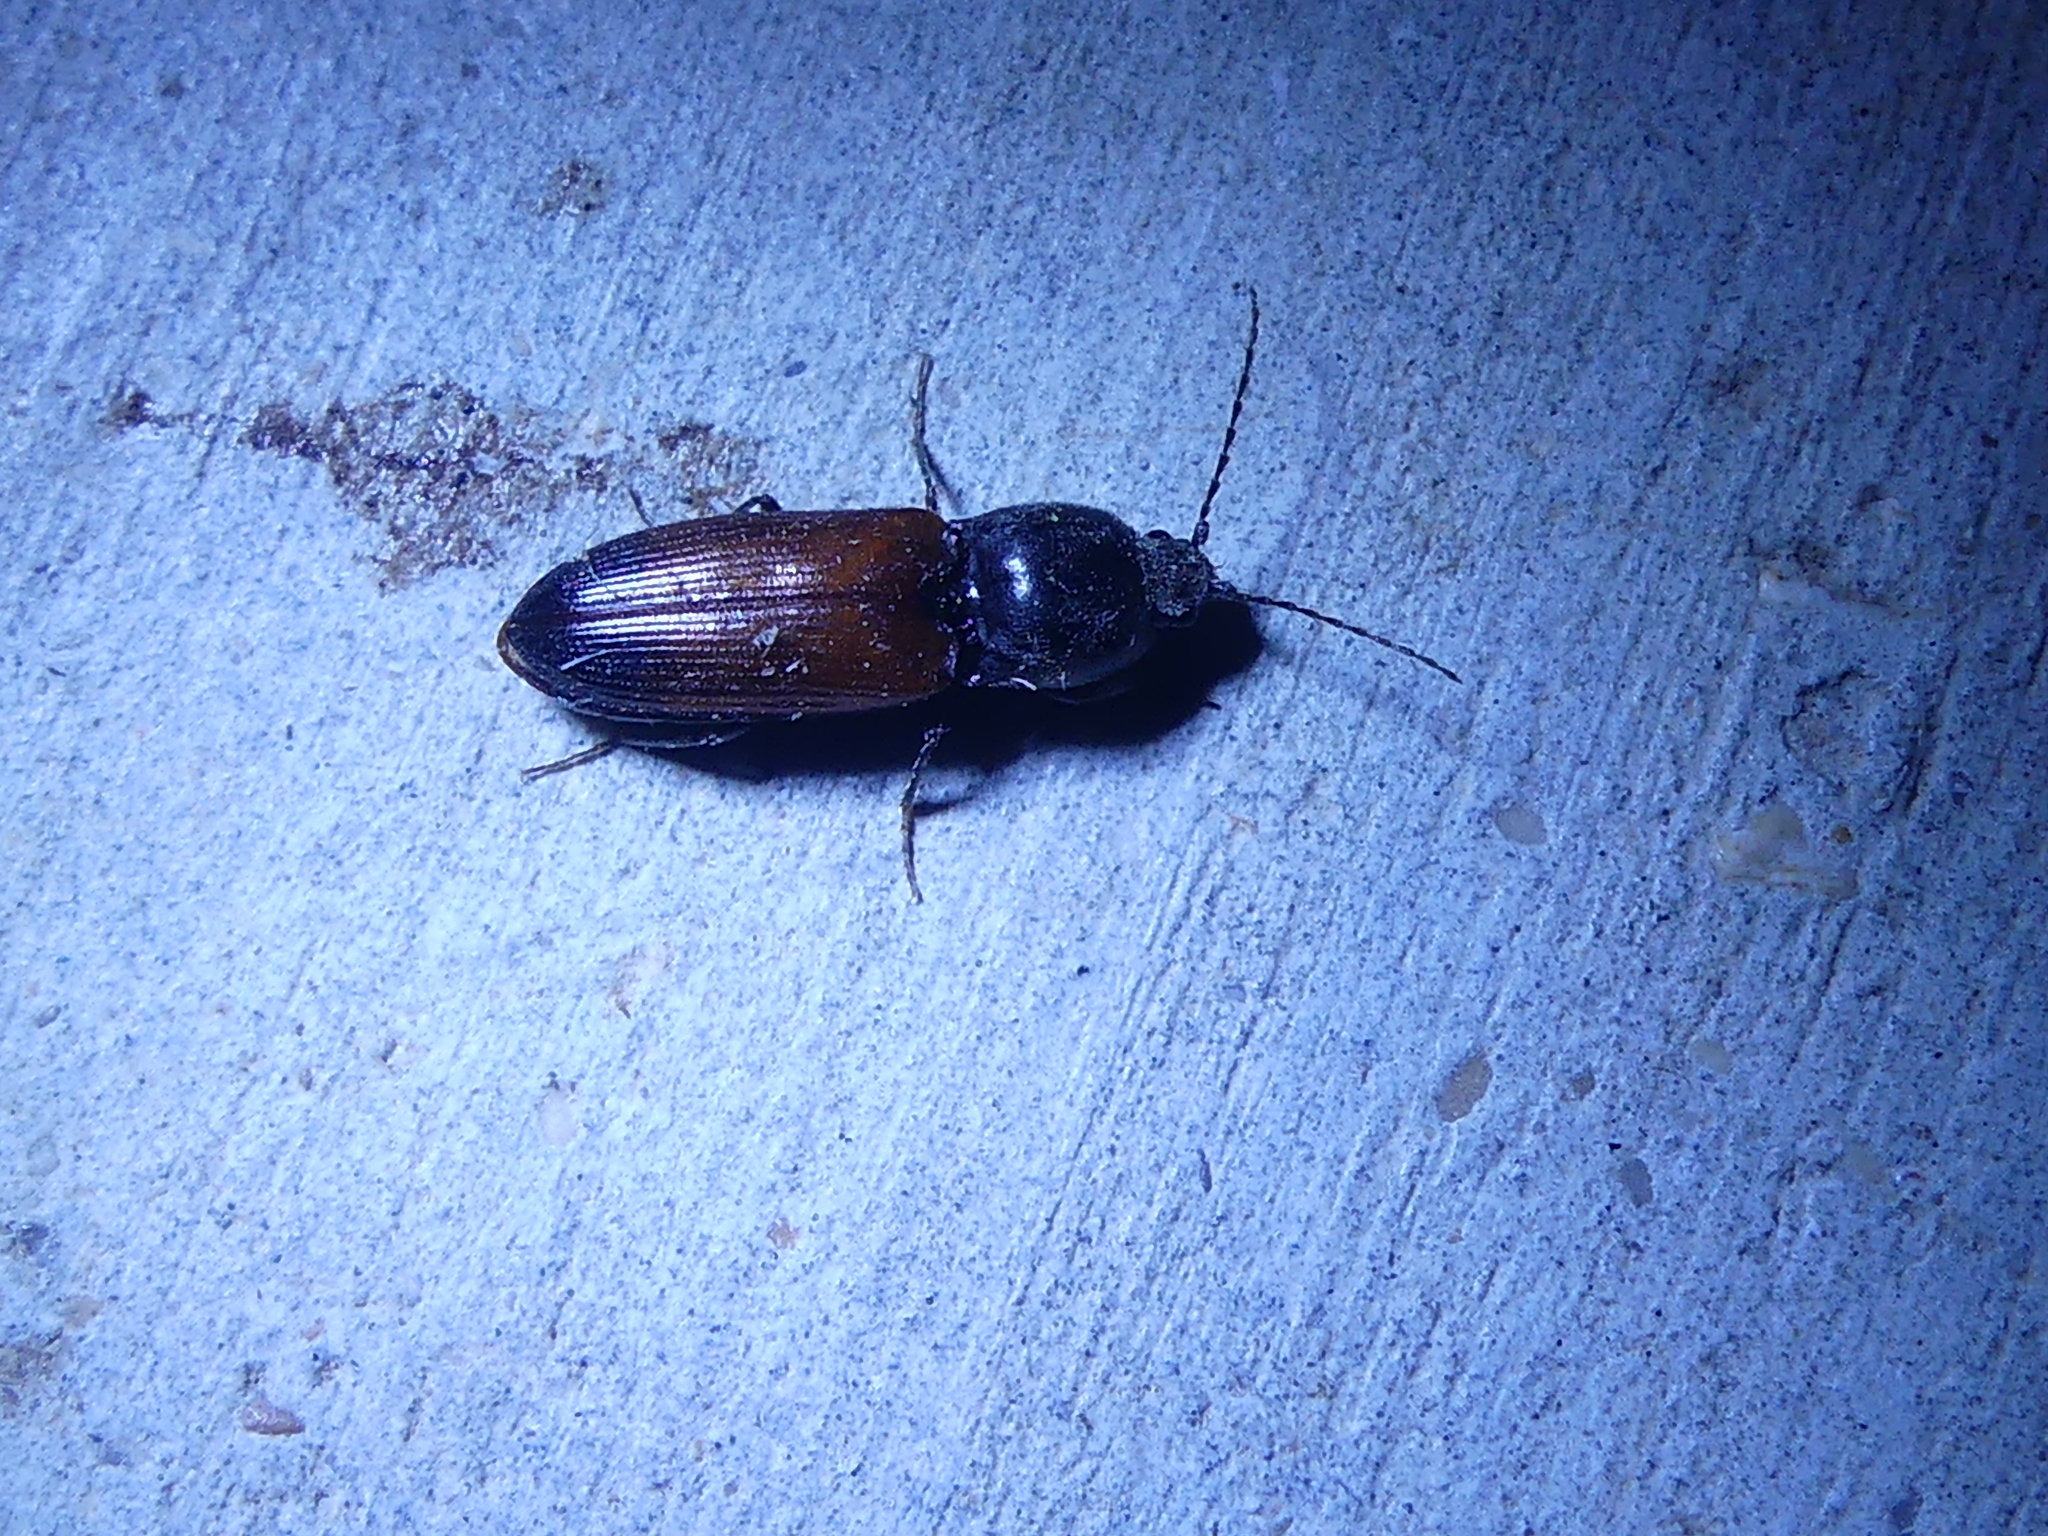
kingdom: Animalia
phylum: Arthropoda
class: Insecta
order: Coleoptera
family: Elateridae
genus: Cardiophorus
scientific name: Cardiophorus
